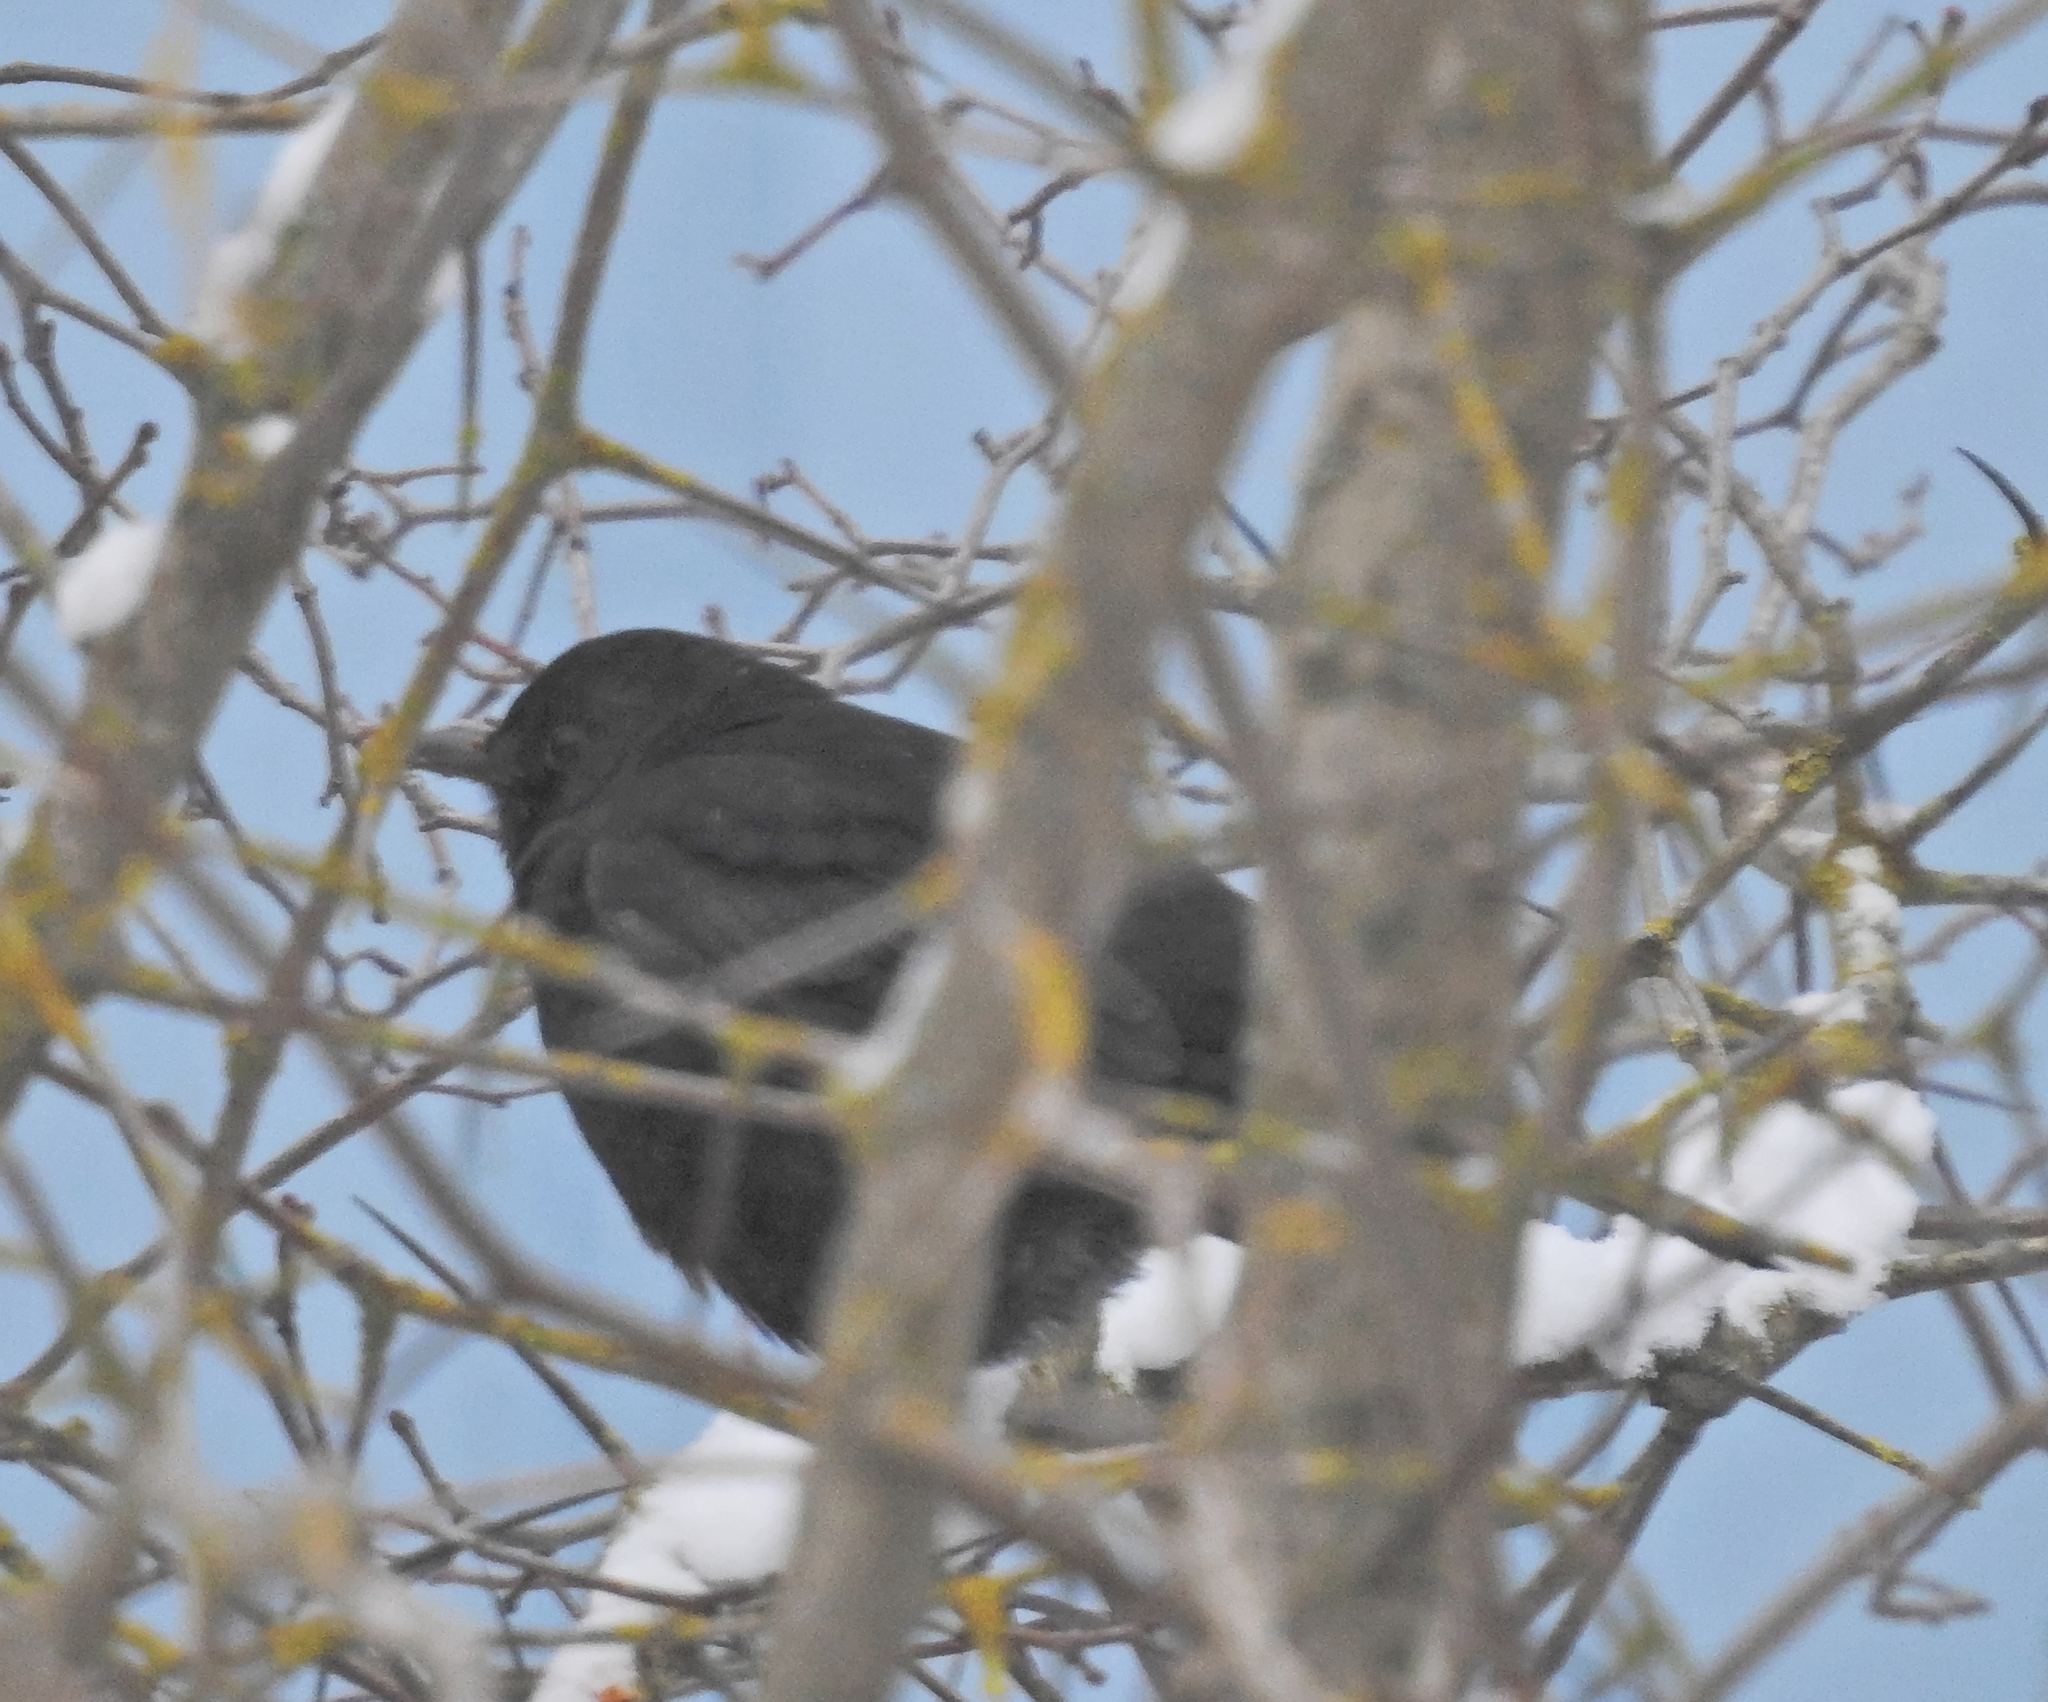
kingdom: Animalia
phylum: Chordata
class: Aves
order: Passeriformes
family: Turdidae
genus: Turdus
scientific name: Turdus merula
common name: Common blackbird
